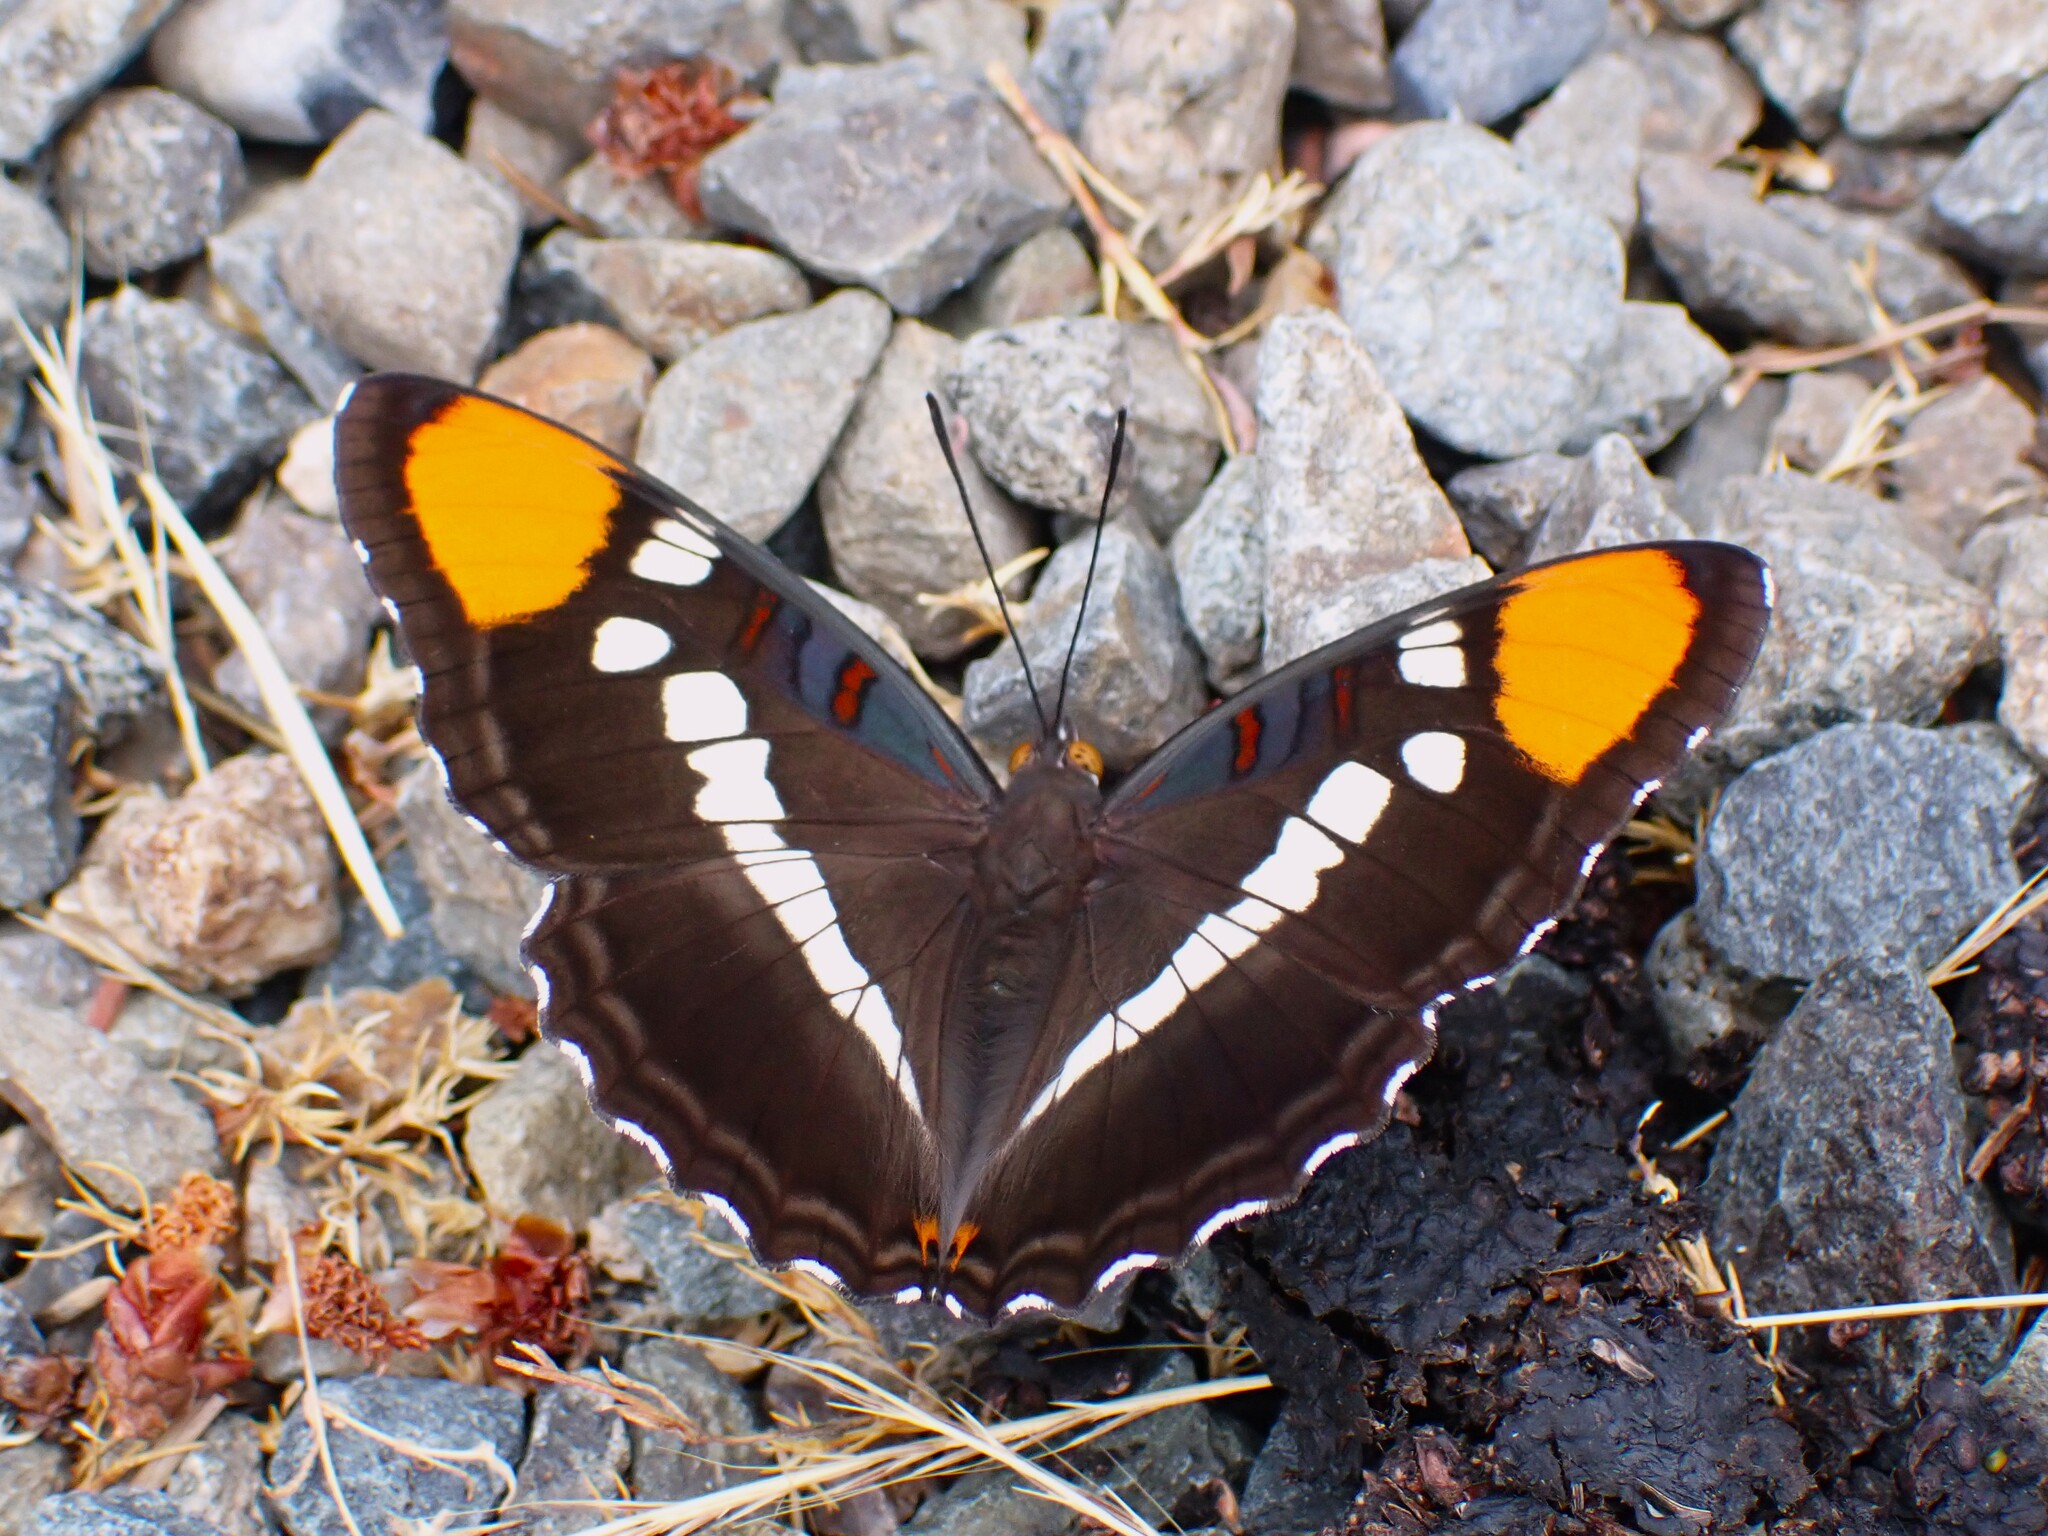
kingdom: Animalia
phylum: Arthropoda
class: Insecta
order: Lepidoptera
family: Nymphalidae
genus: Limenitis
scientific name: Limenitis bredowii
